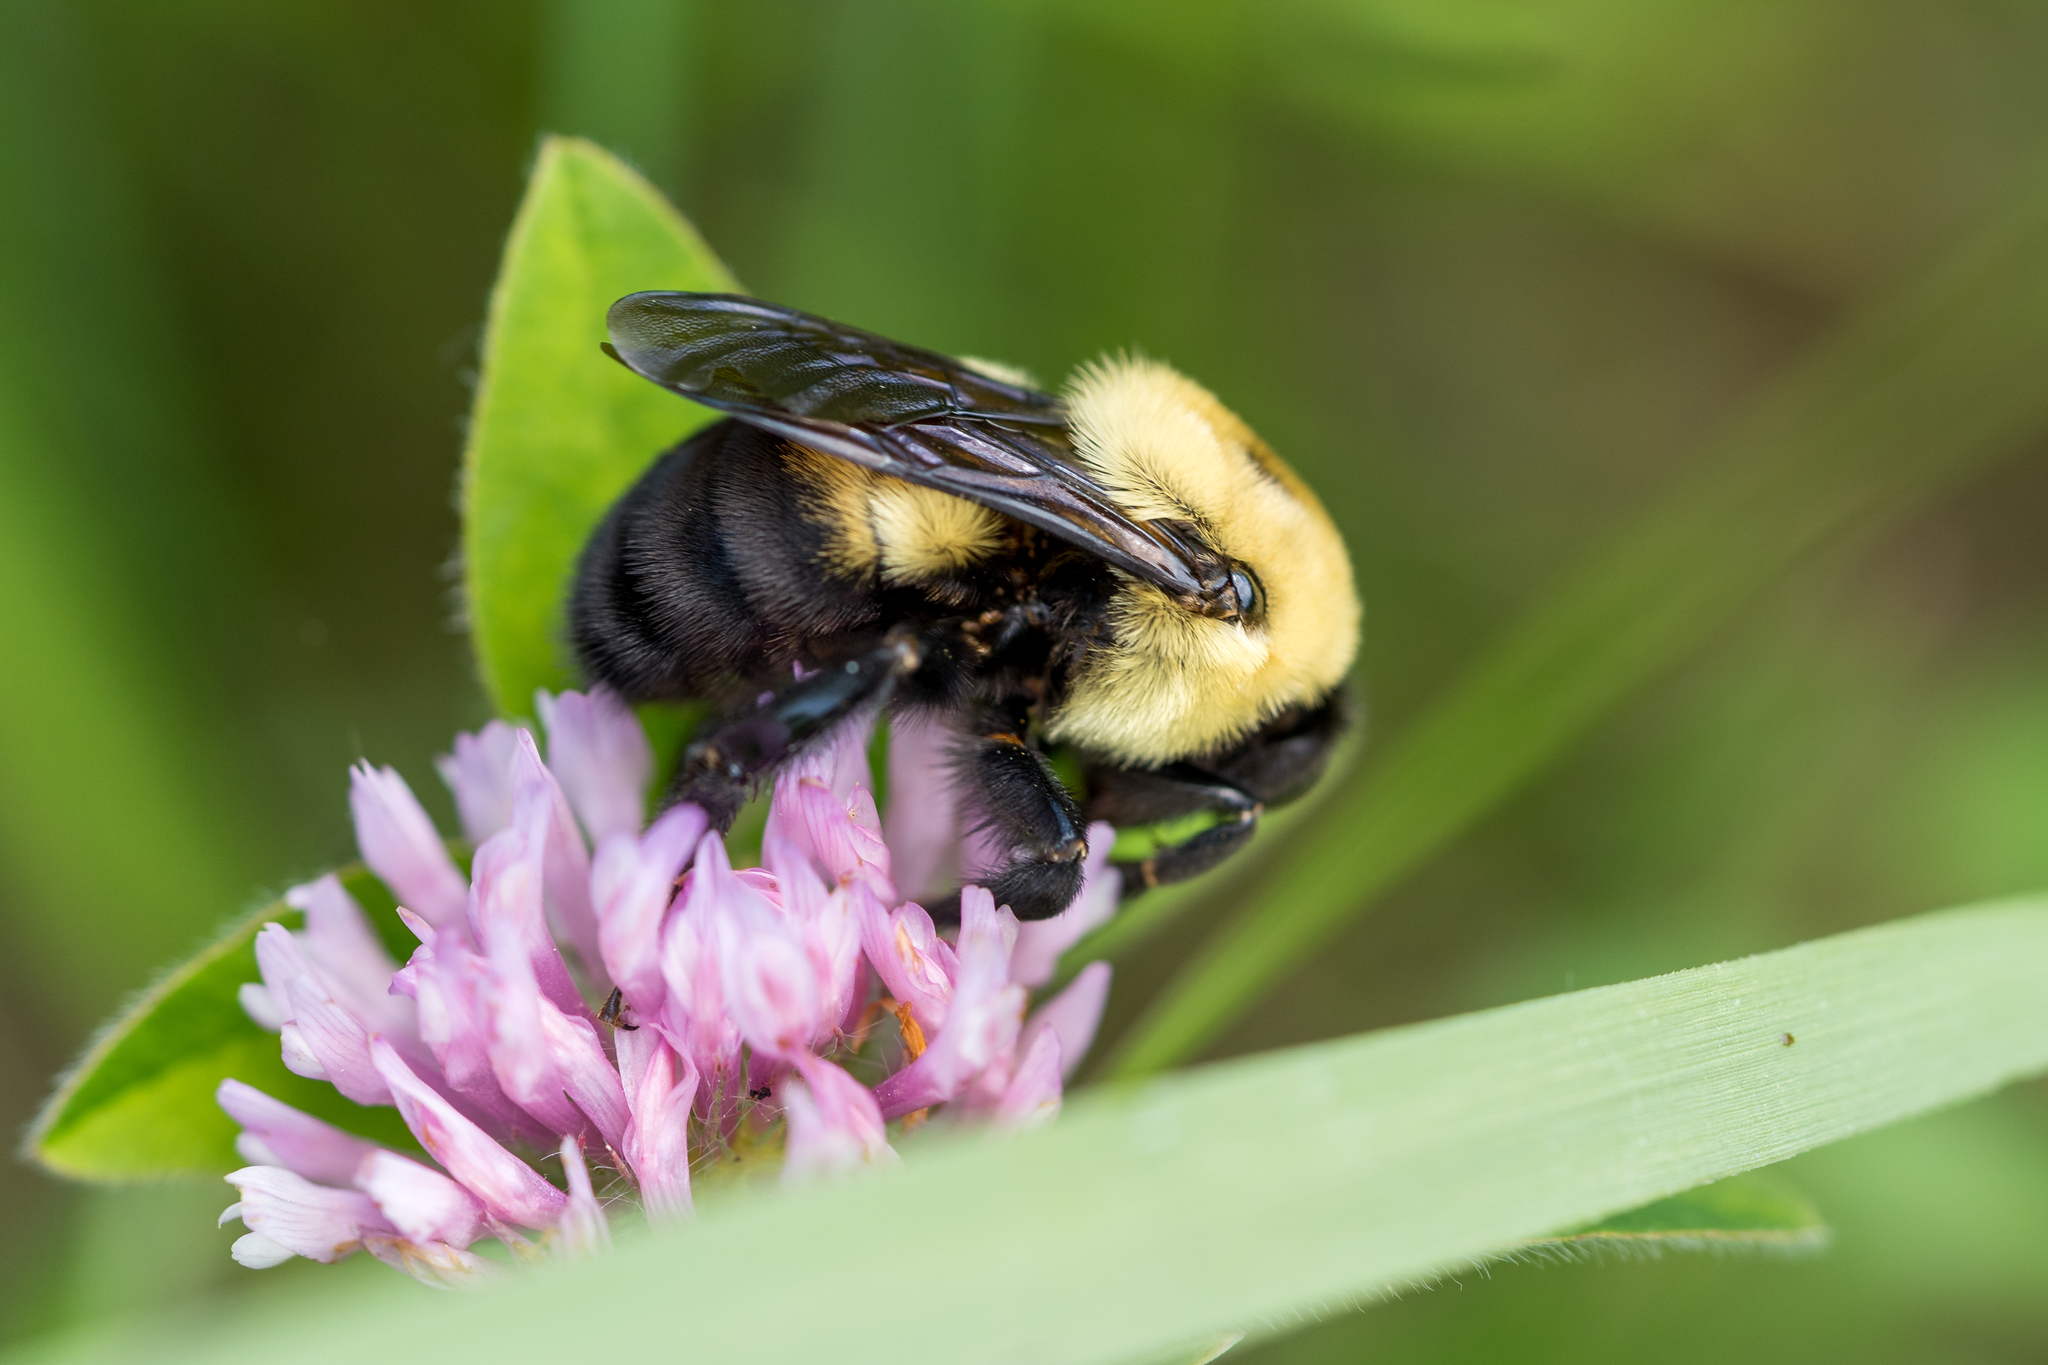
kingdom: Animalia
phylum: Arthropoda
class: Insecta
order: Hymenoptera
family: Apidae
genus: Bombus
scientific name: Bombus griseocollis
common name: Brown-belted bumble bee
